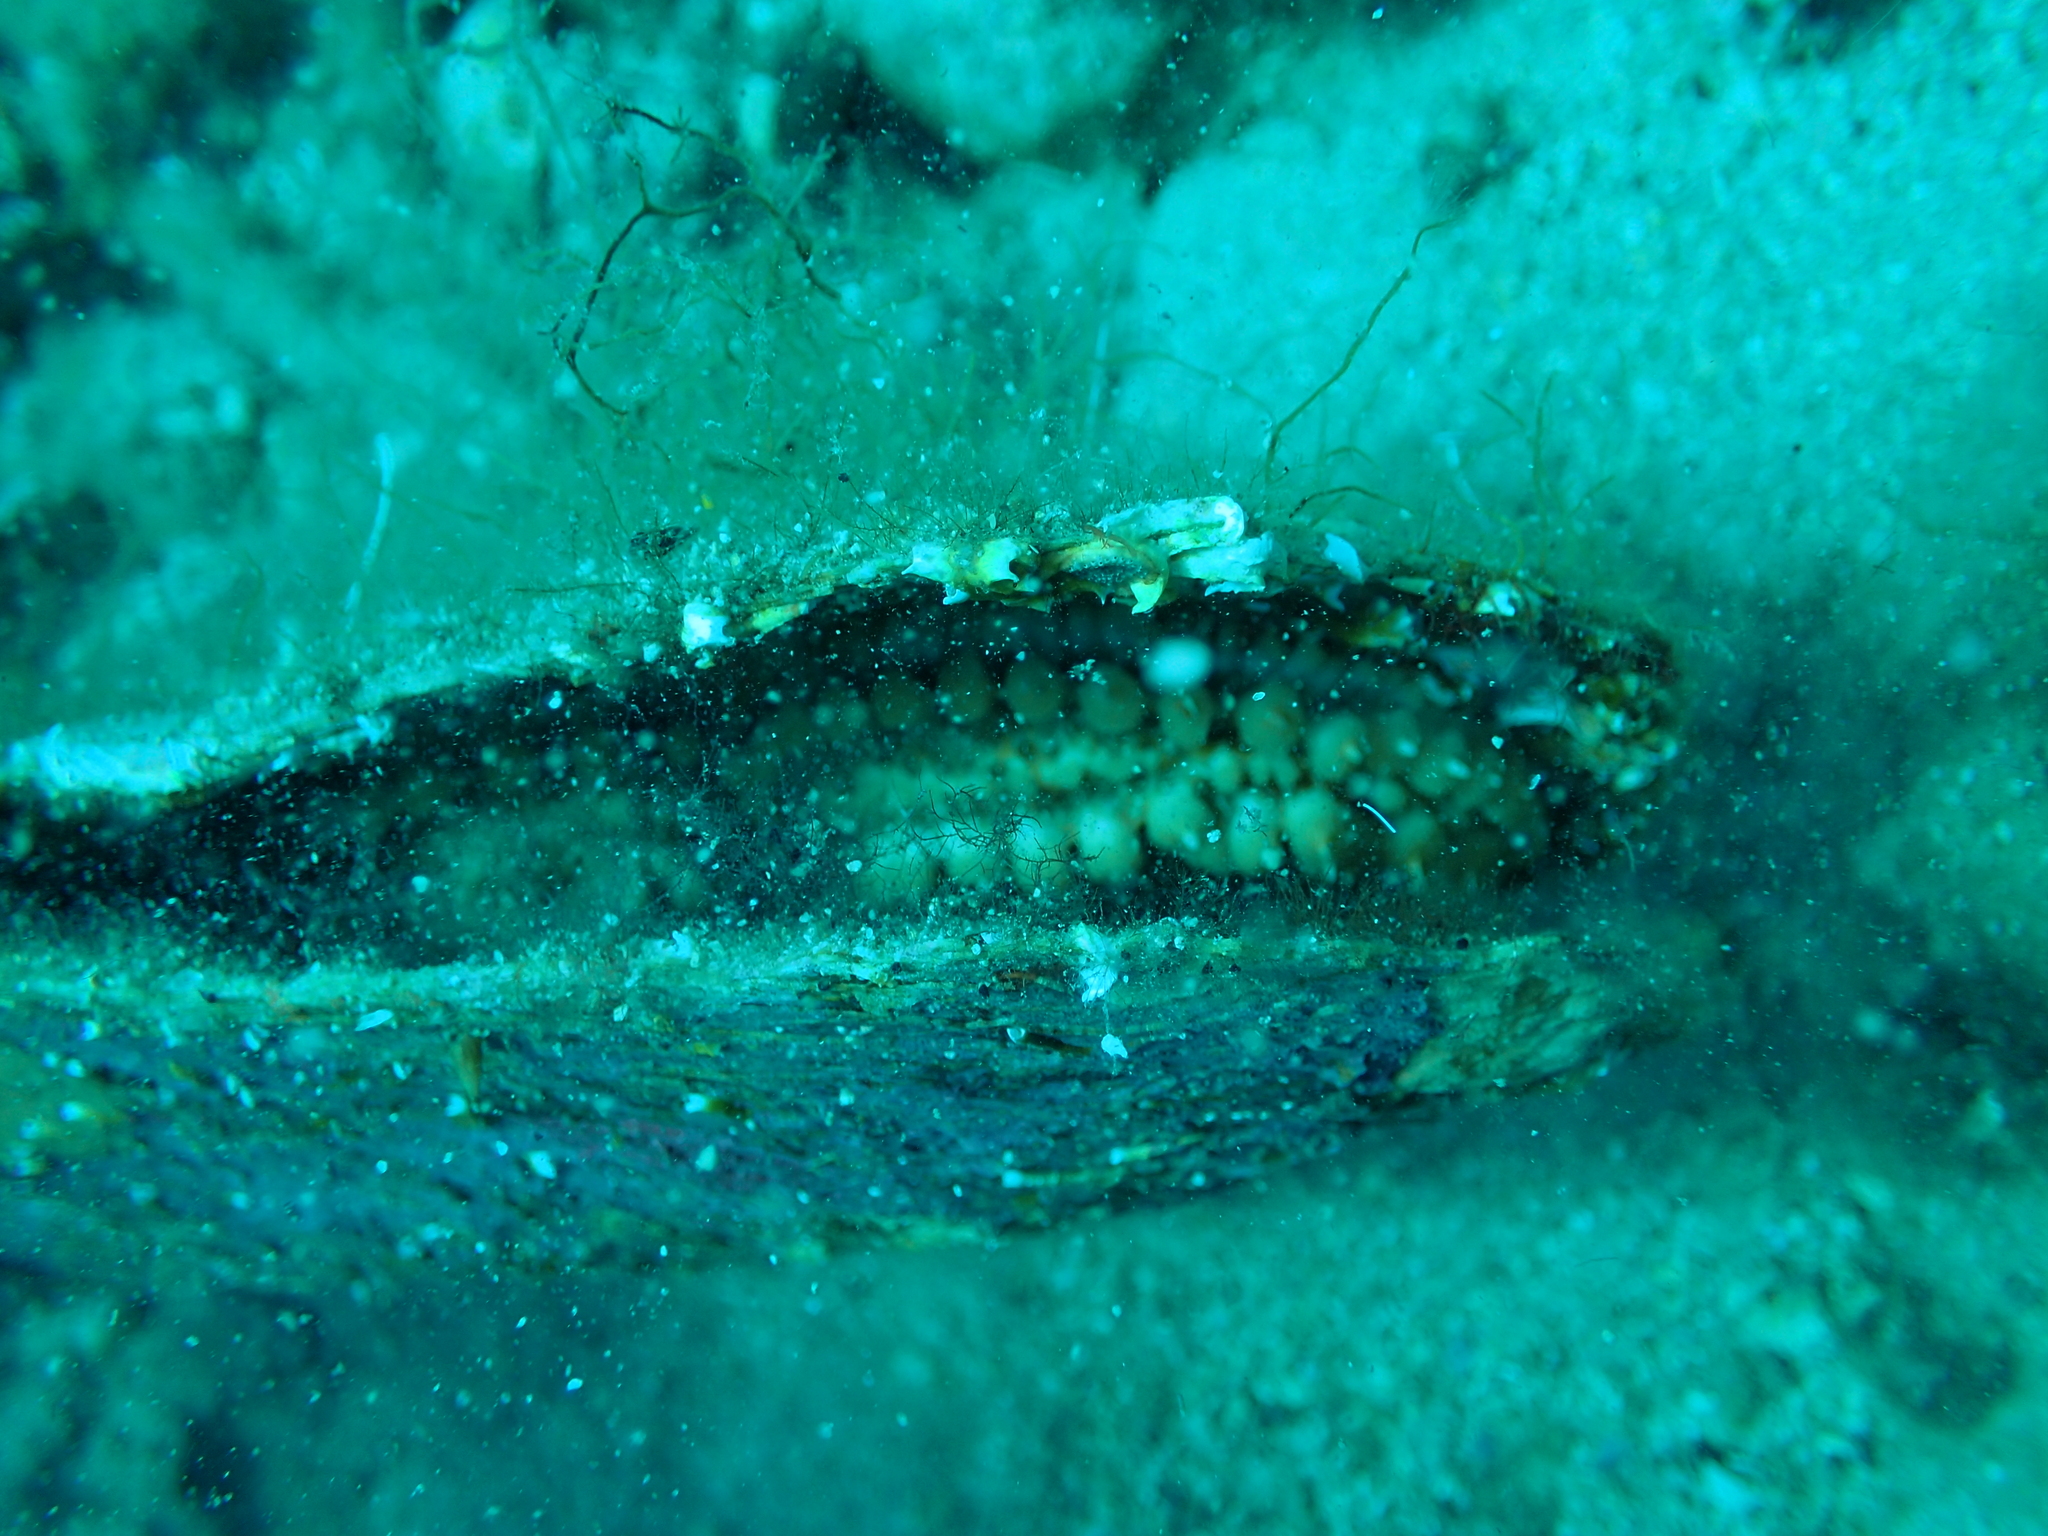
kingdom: Animalia
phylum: Mollusca
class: Bivalvia
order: Ostreida
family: Pinnidae
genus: Pinna
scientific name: Pinna nobilis
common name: Fan mussel
